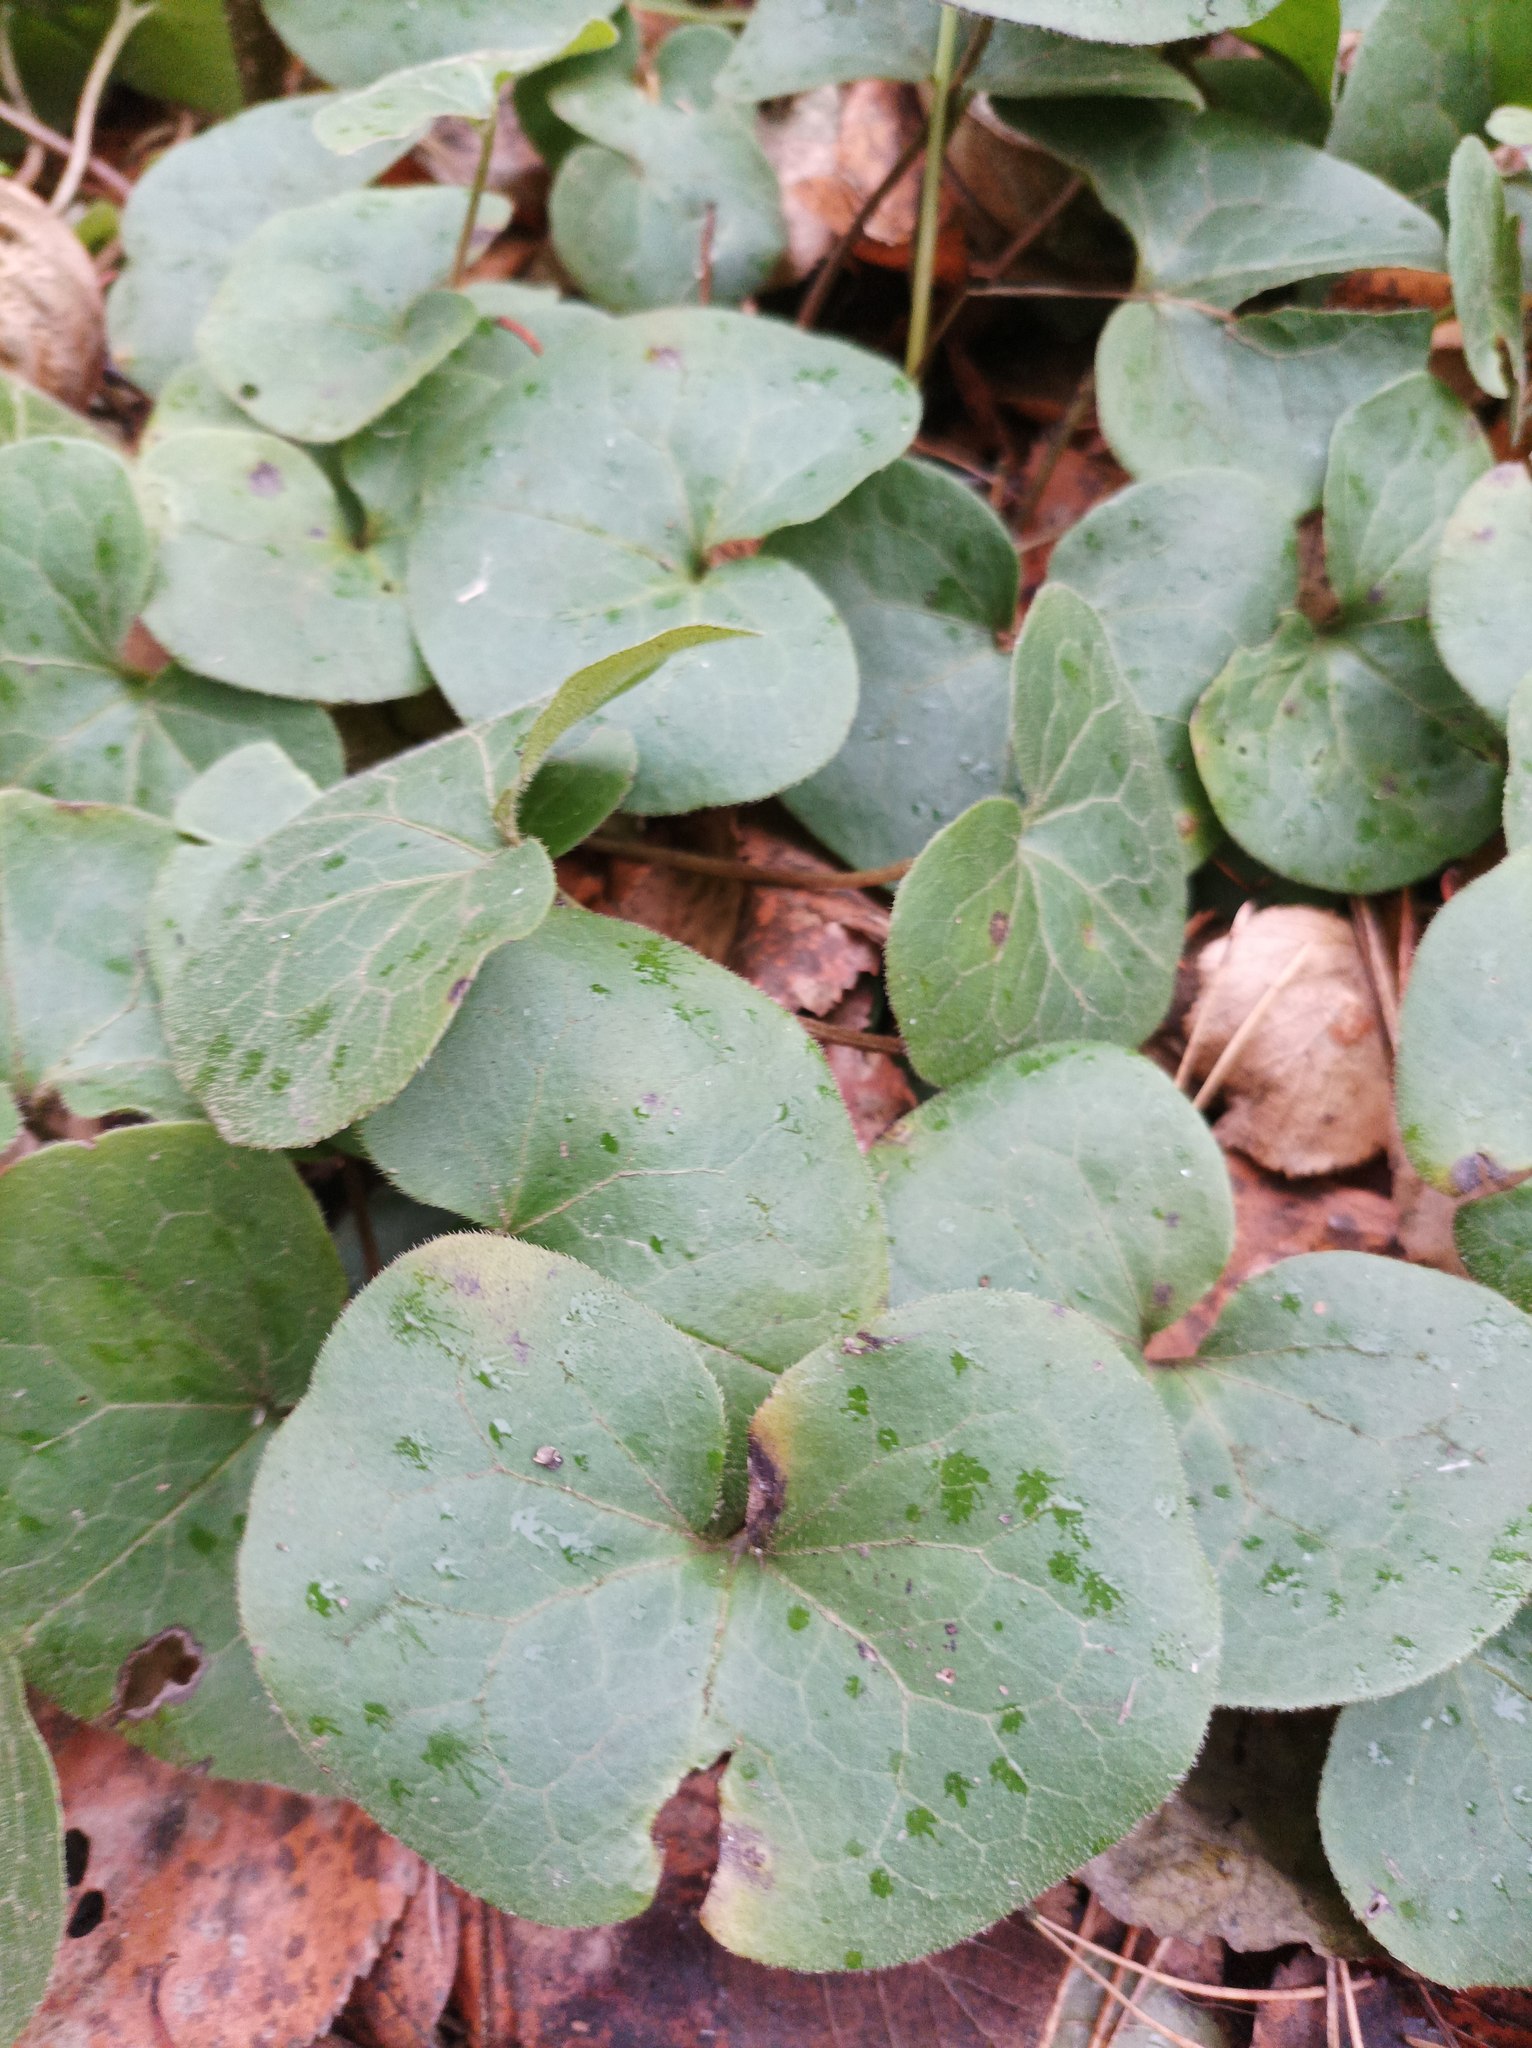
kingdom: Plantae
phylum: Tracheophyta
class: Magnoliopsida
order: Piperales
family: Aristolochiaceae
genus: Asarum
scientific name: Asarum europaeum
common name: Asarabacca
